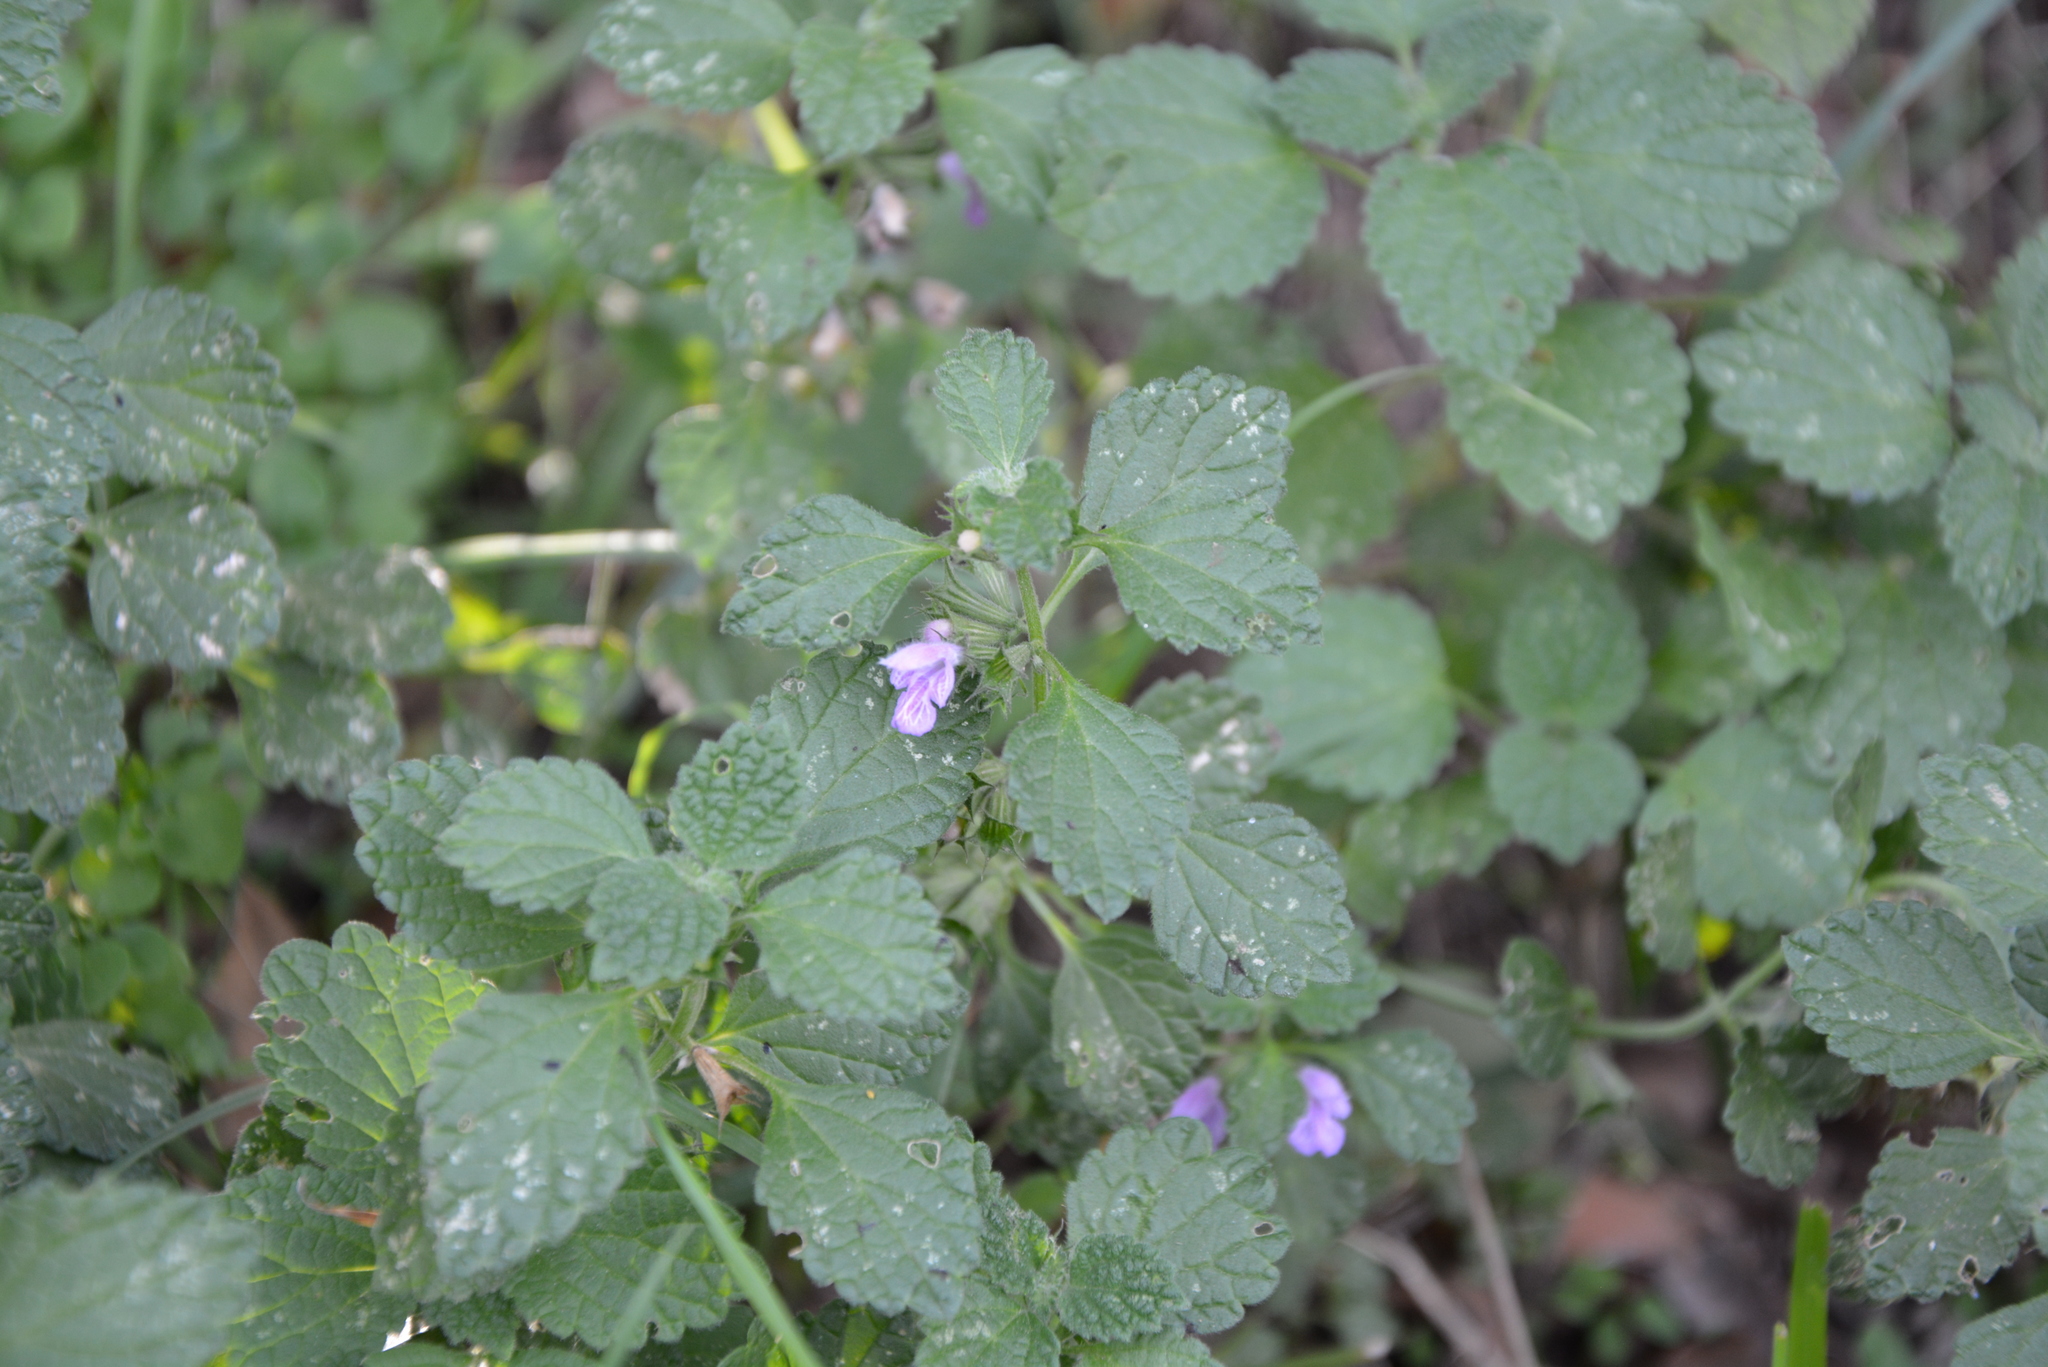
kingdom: Plantae
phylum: Tracheophyta
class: Magnoliopsida
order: Lamiales
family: Lamiaceae
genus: Ballota
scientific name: Ballota nigra
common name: Black horehound
